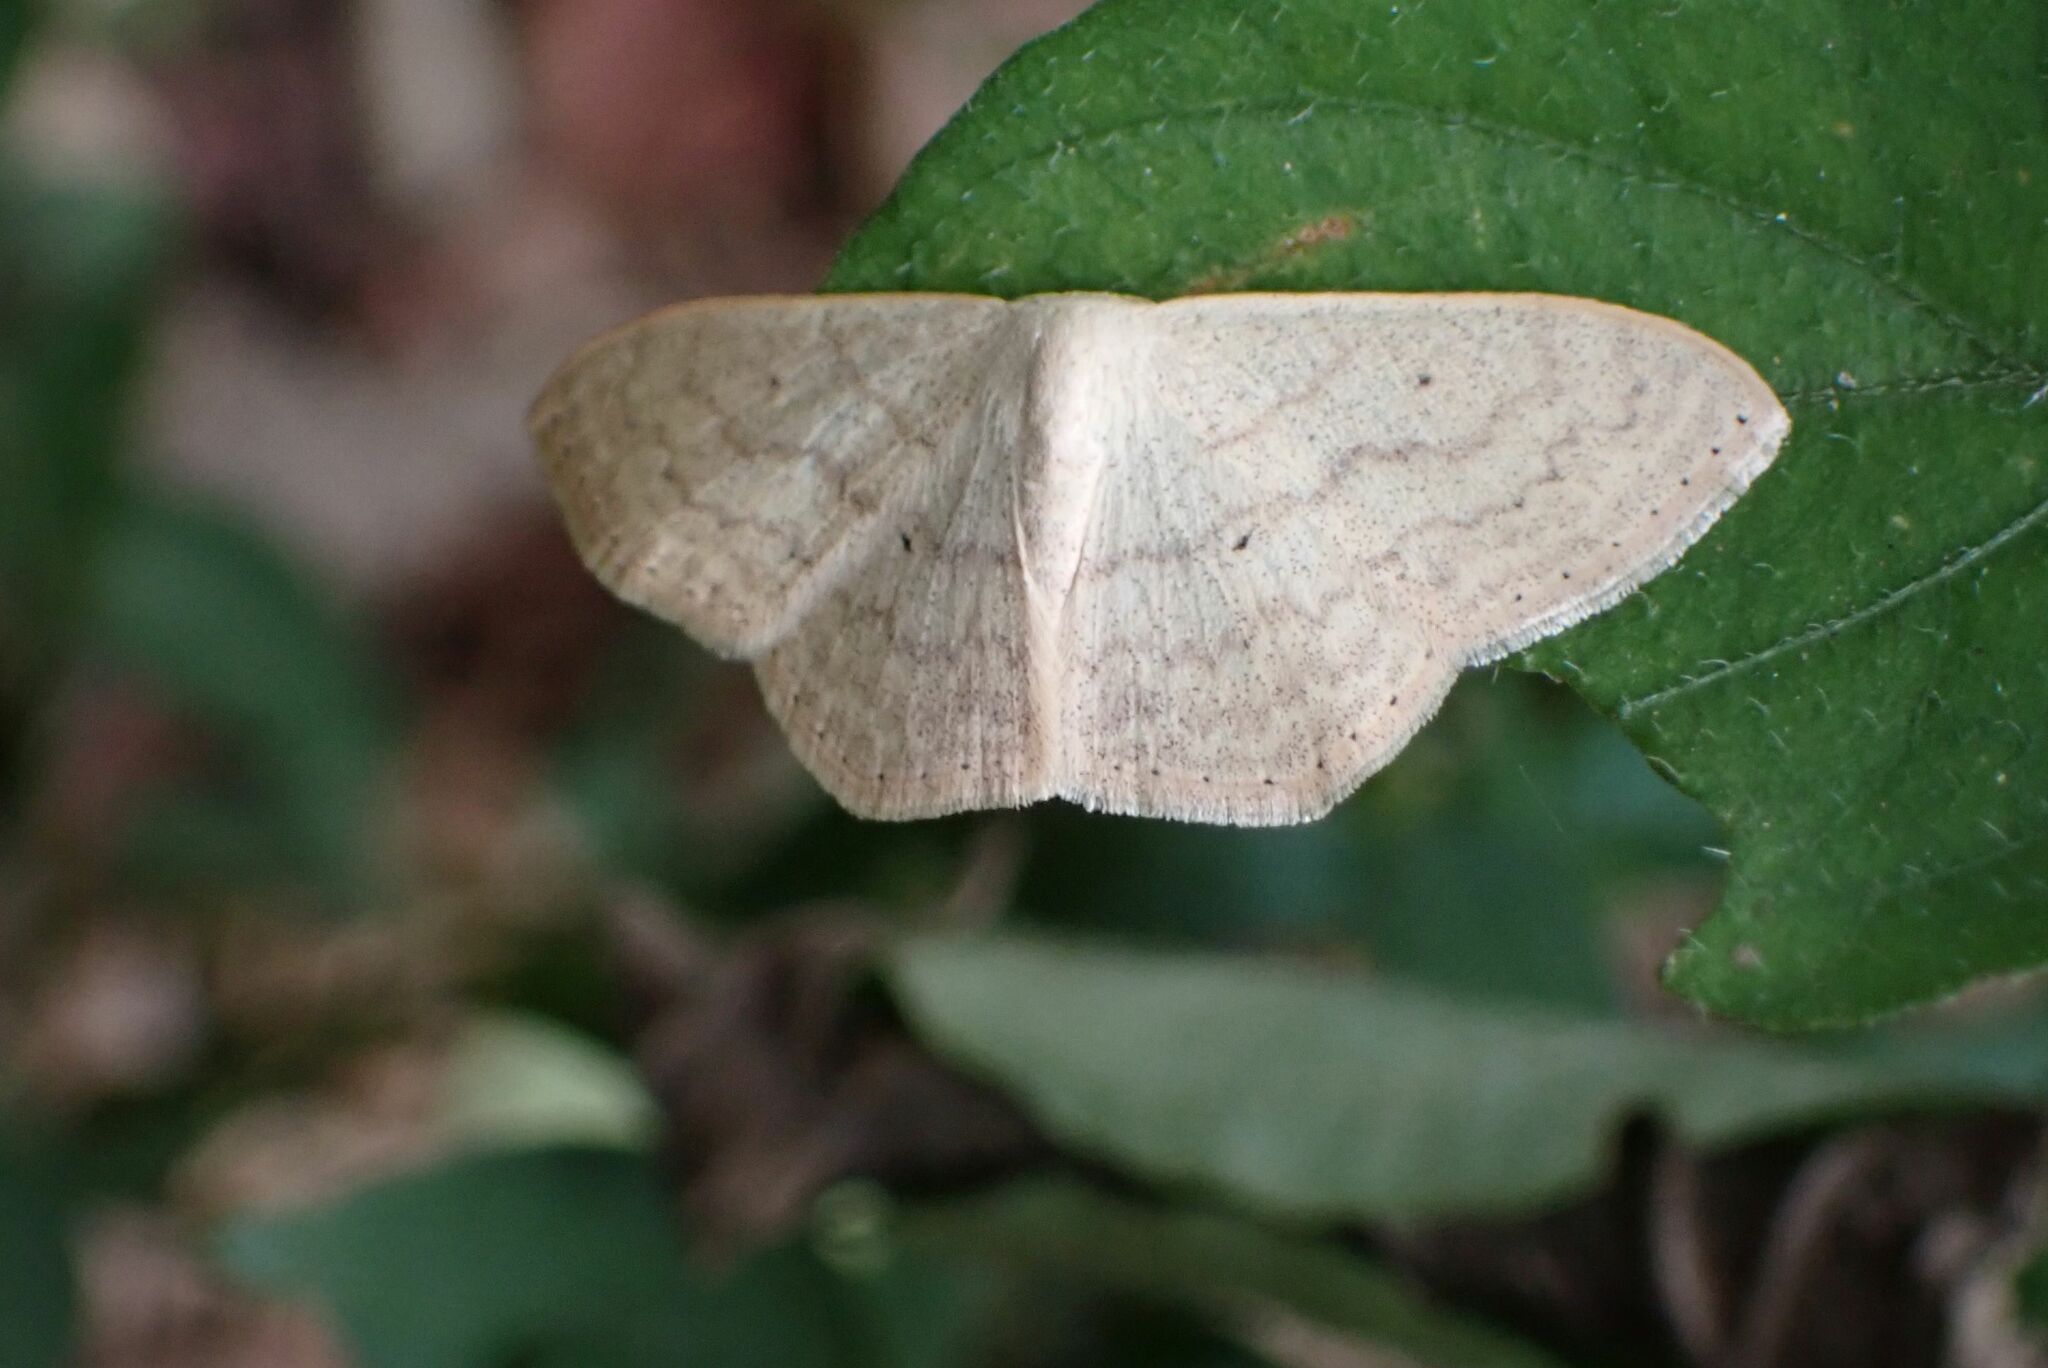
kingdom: Animalia
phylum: Arthropoda
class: Insecta
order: Lepidoptera
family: Geometridae
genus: Scopula
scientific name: Scopula spoliata
